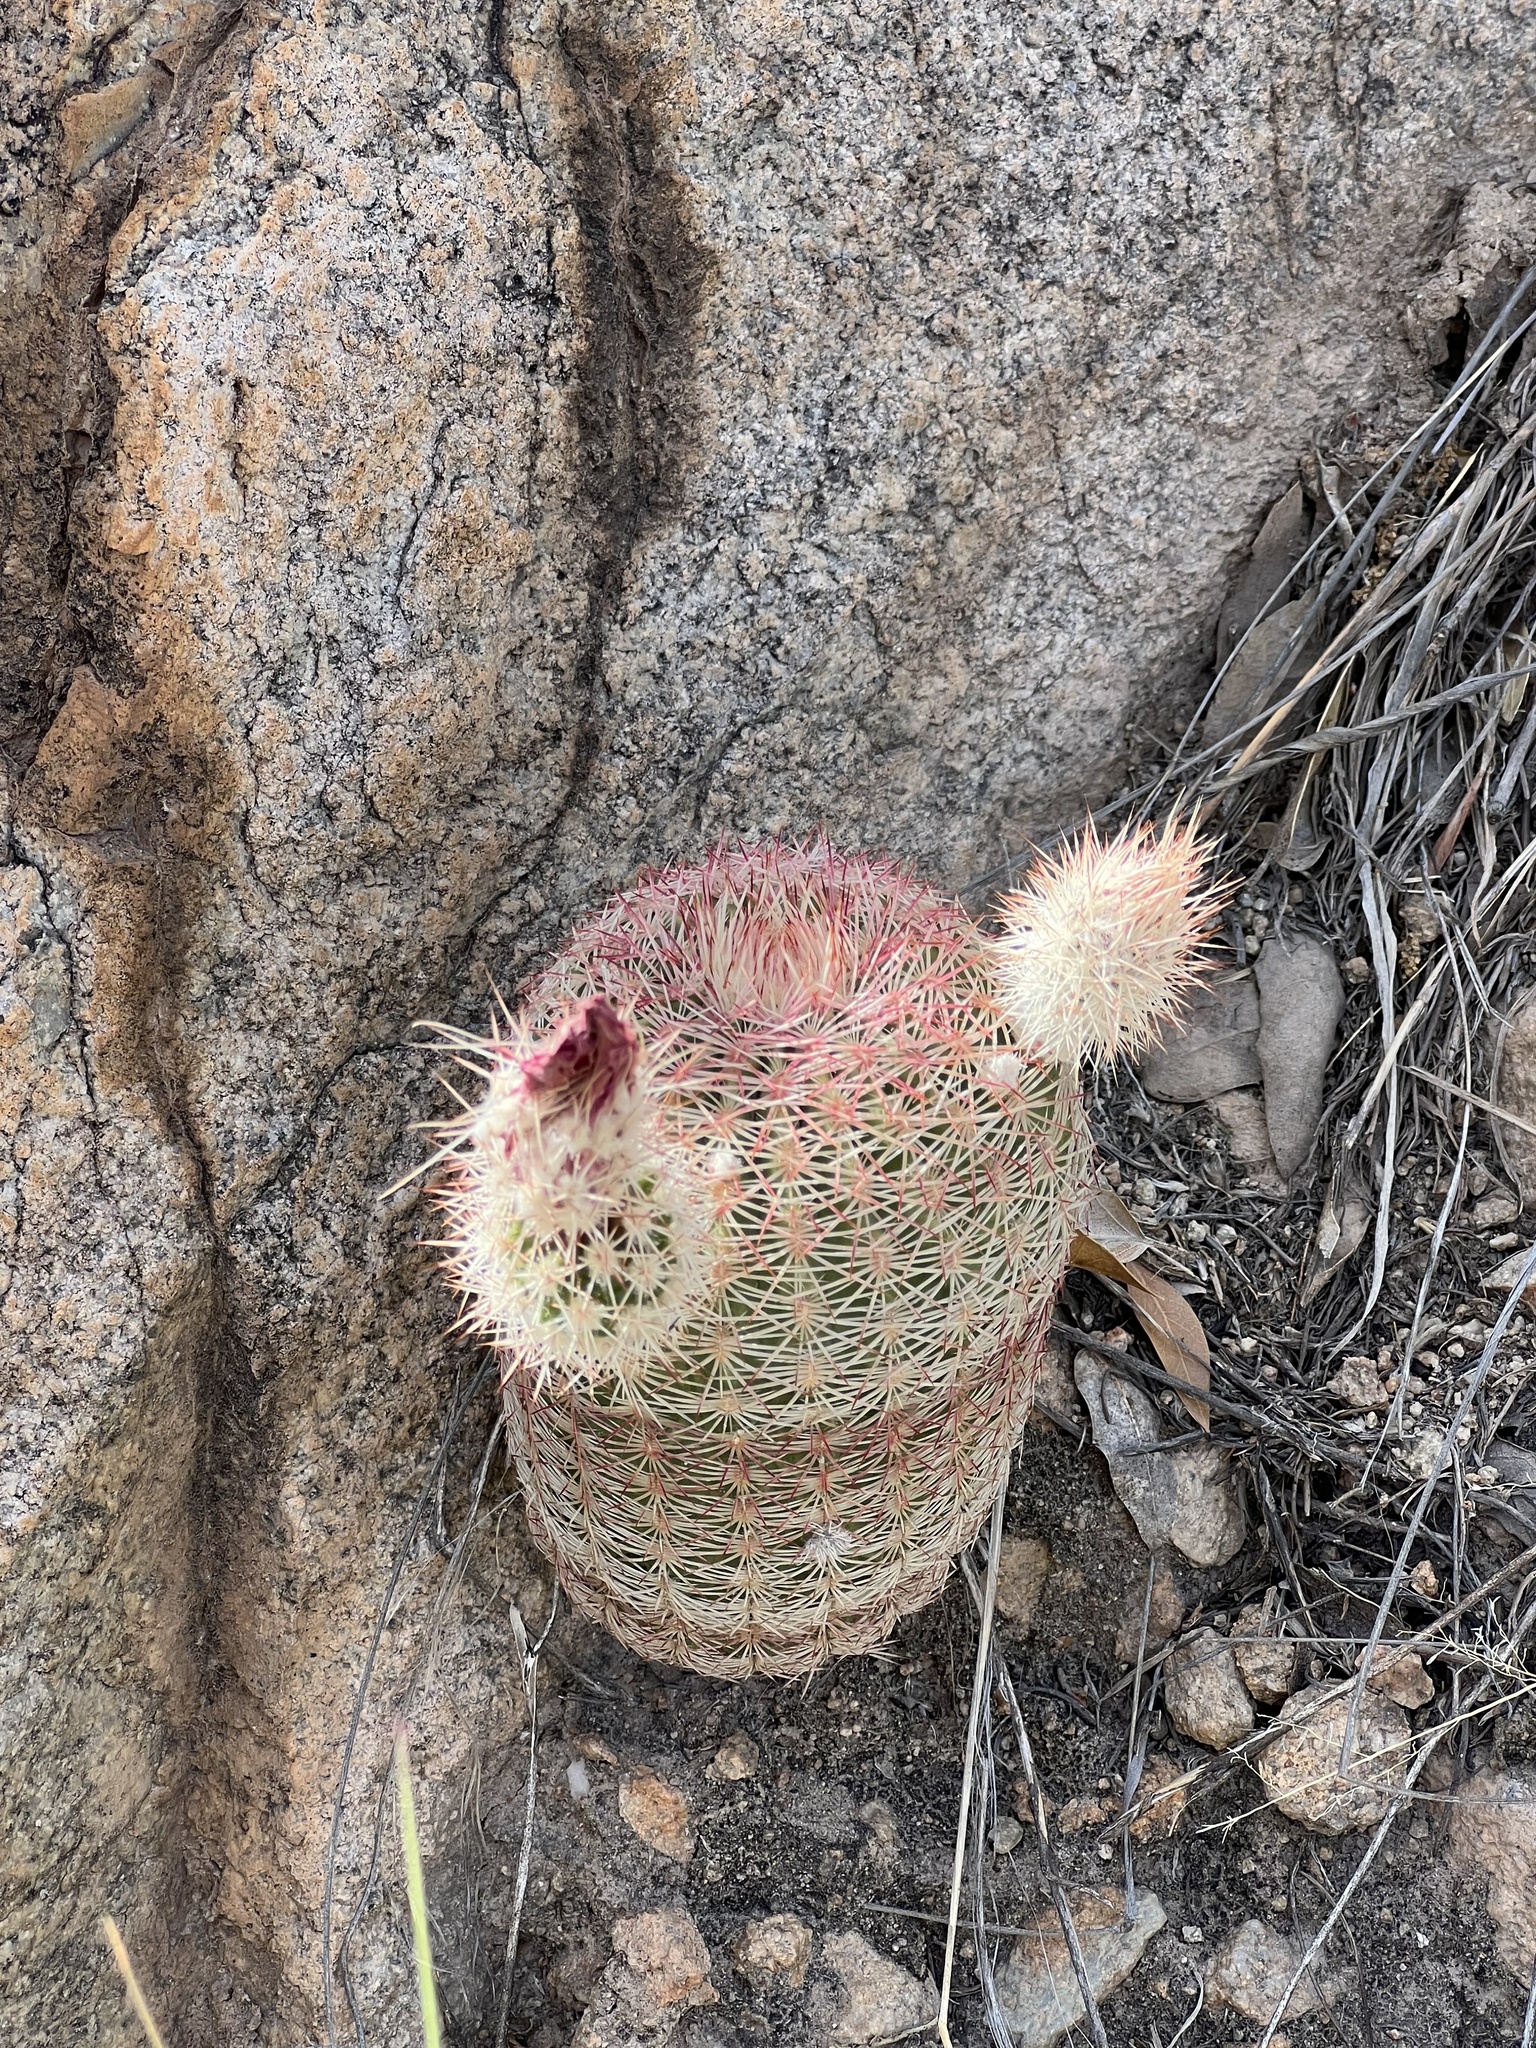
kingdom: Plantae
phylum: Tracheophyta
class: Magnoliopsida
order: Caryophyllales
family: Cactaceae
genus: Echinocereus
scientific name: Echinocereus rigidissimus
